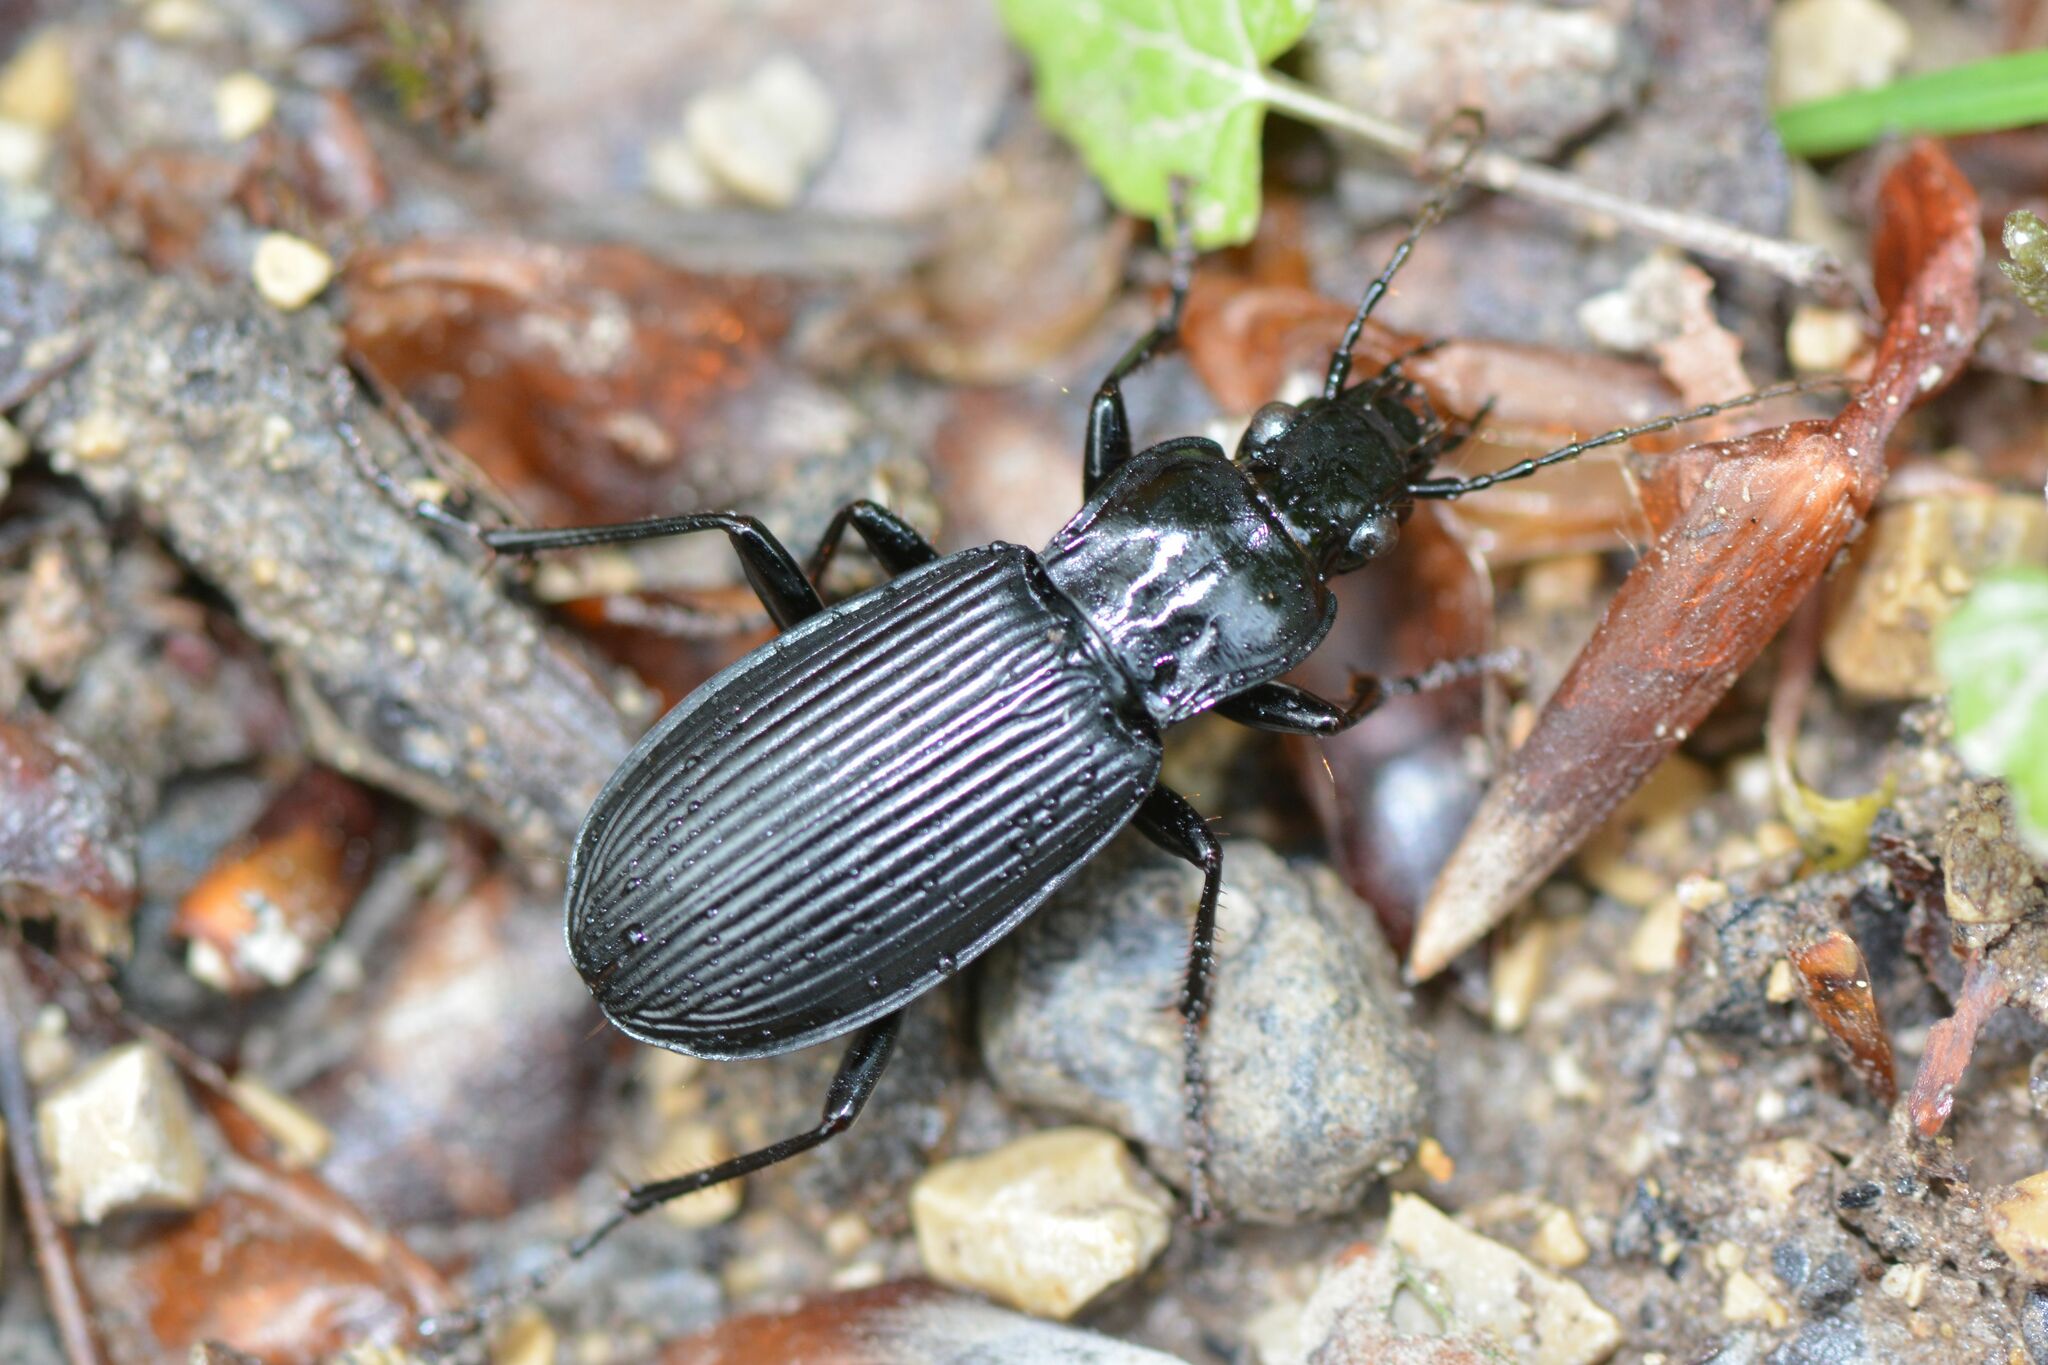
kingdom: Animalia
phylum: Arthropoda
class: Insecta
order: Coleoptera
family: Carabidae
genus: Pterostichus
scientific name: Pterostichus niger
